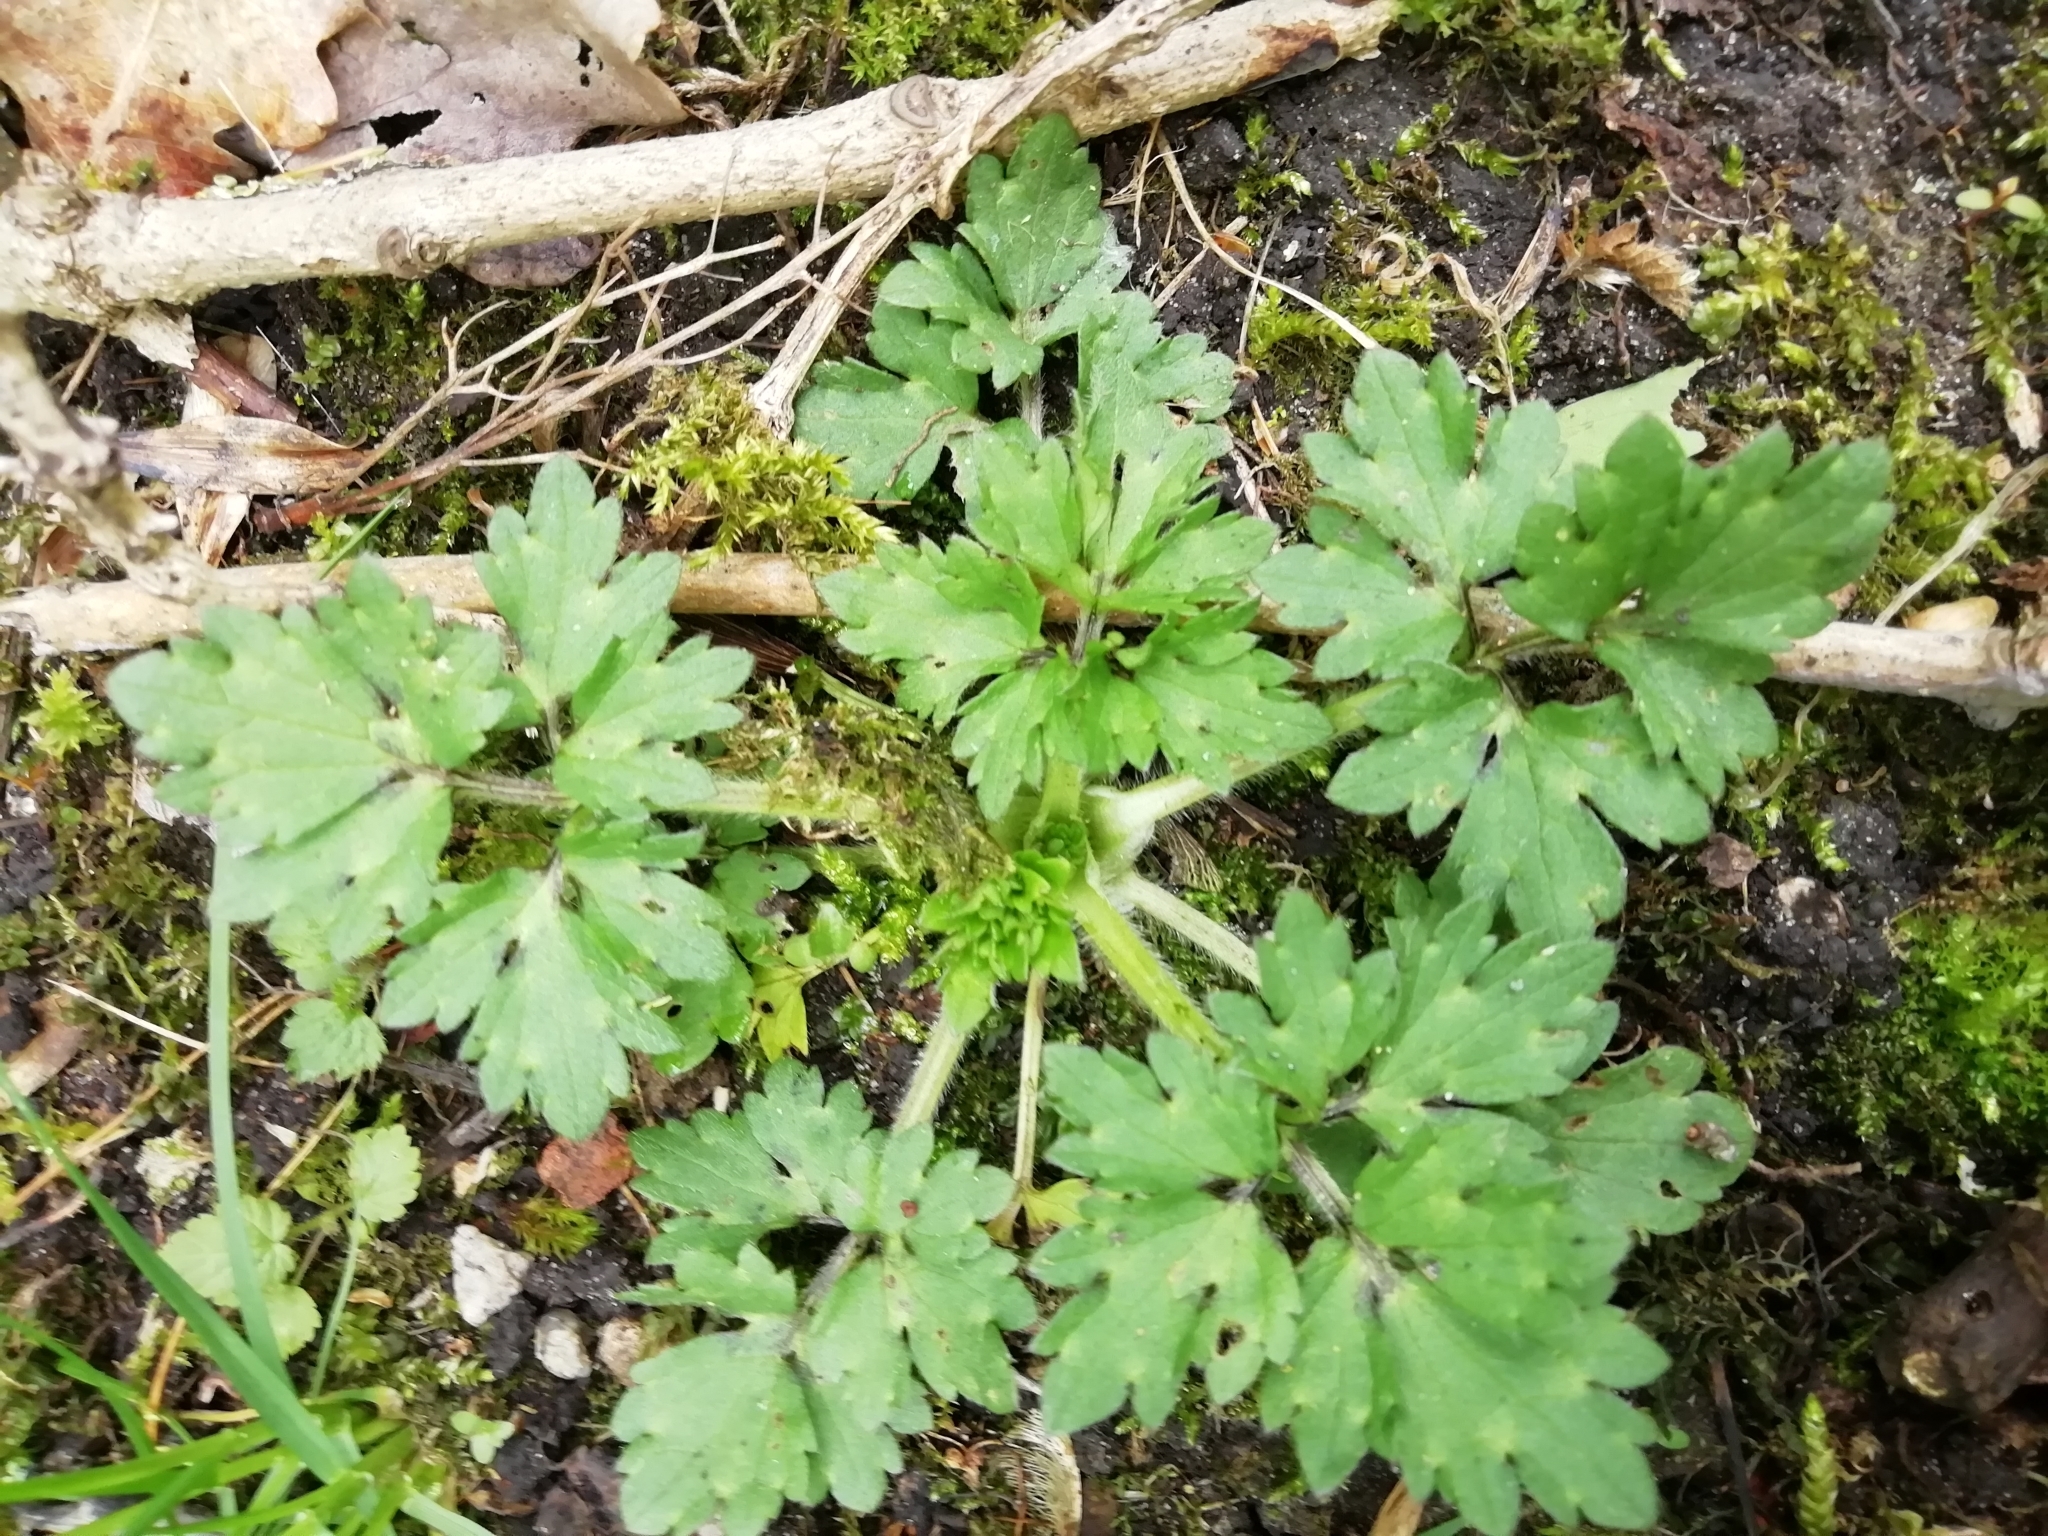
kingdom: Plantae
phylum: Tracheophyta
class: Magnoliopsida
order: Ranunculales
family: Ranunculaceae
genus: Ranunculus
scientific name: Ranunculus repens
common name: Creeping buttercup
